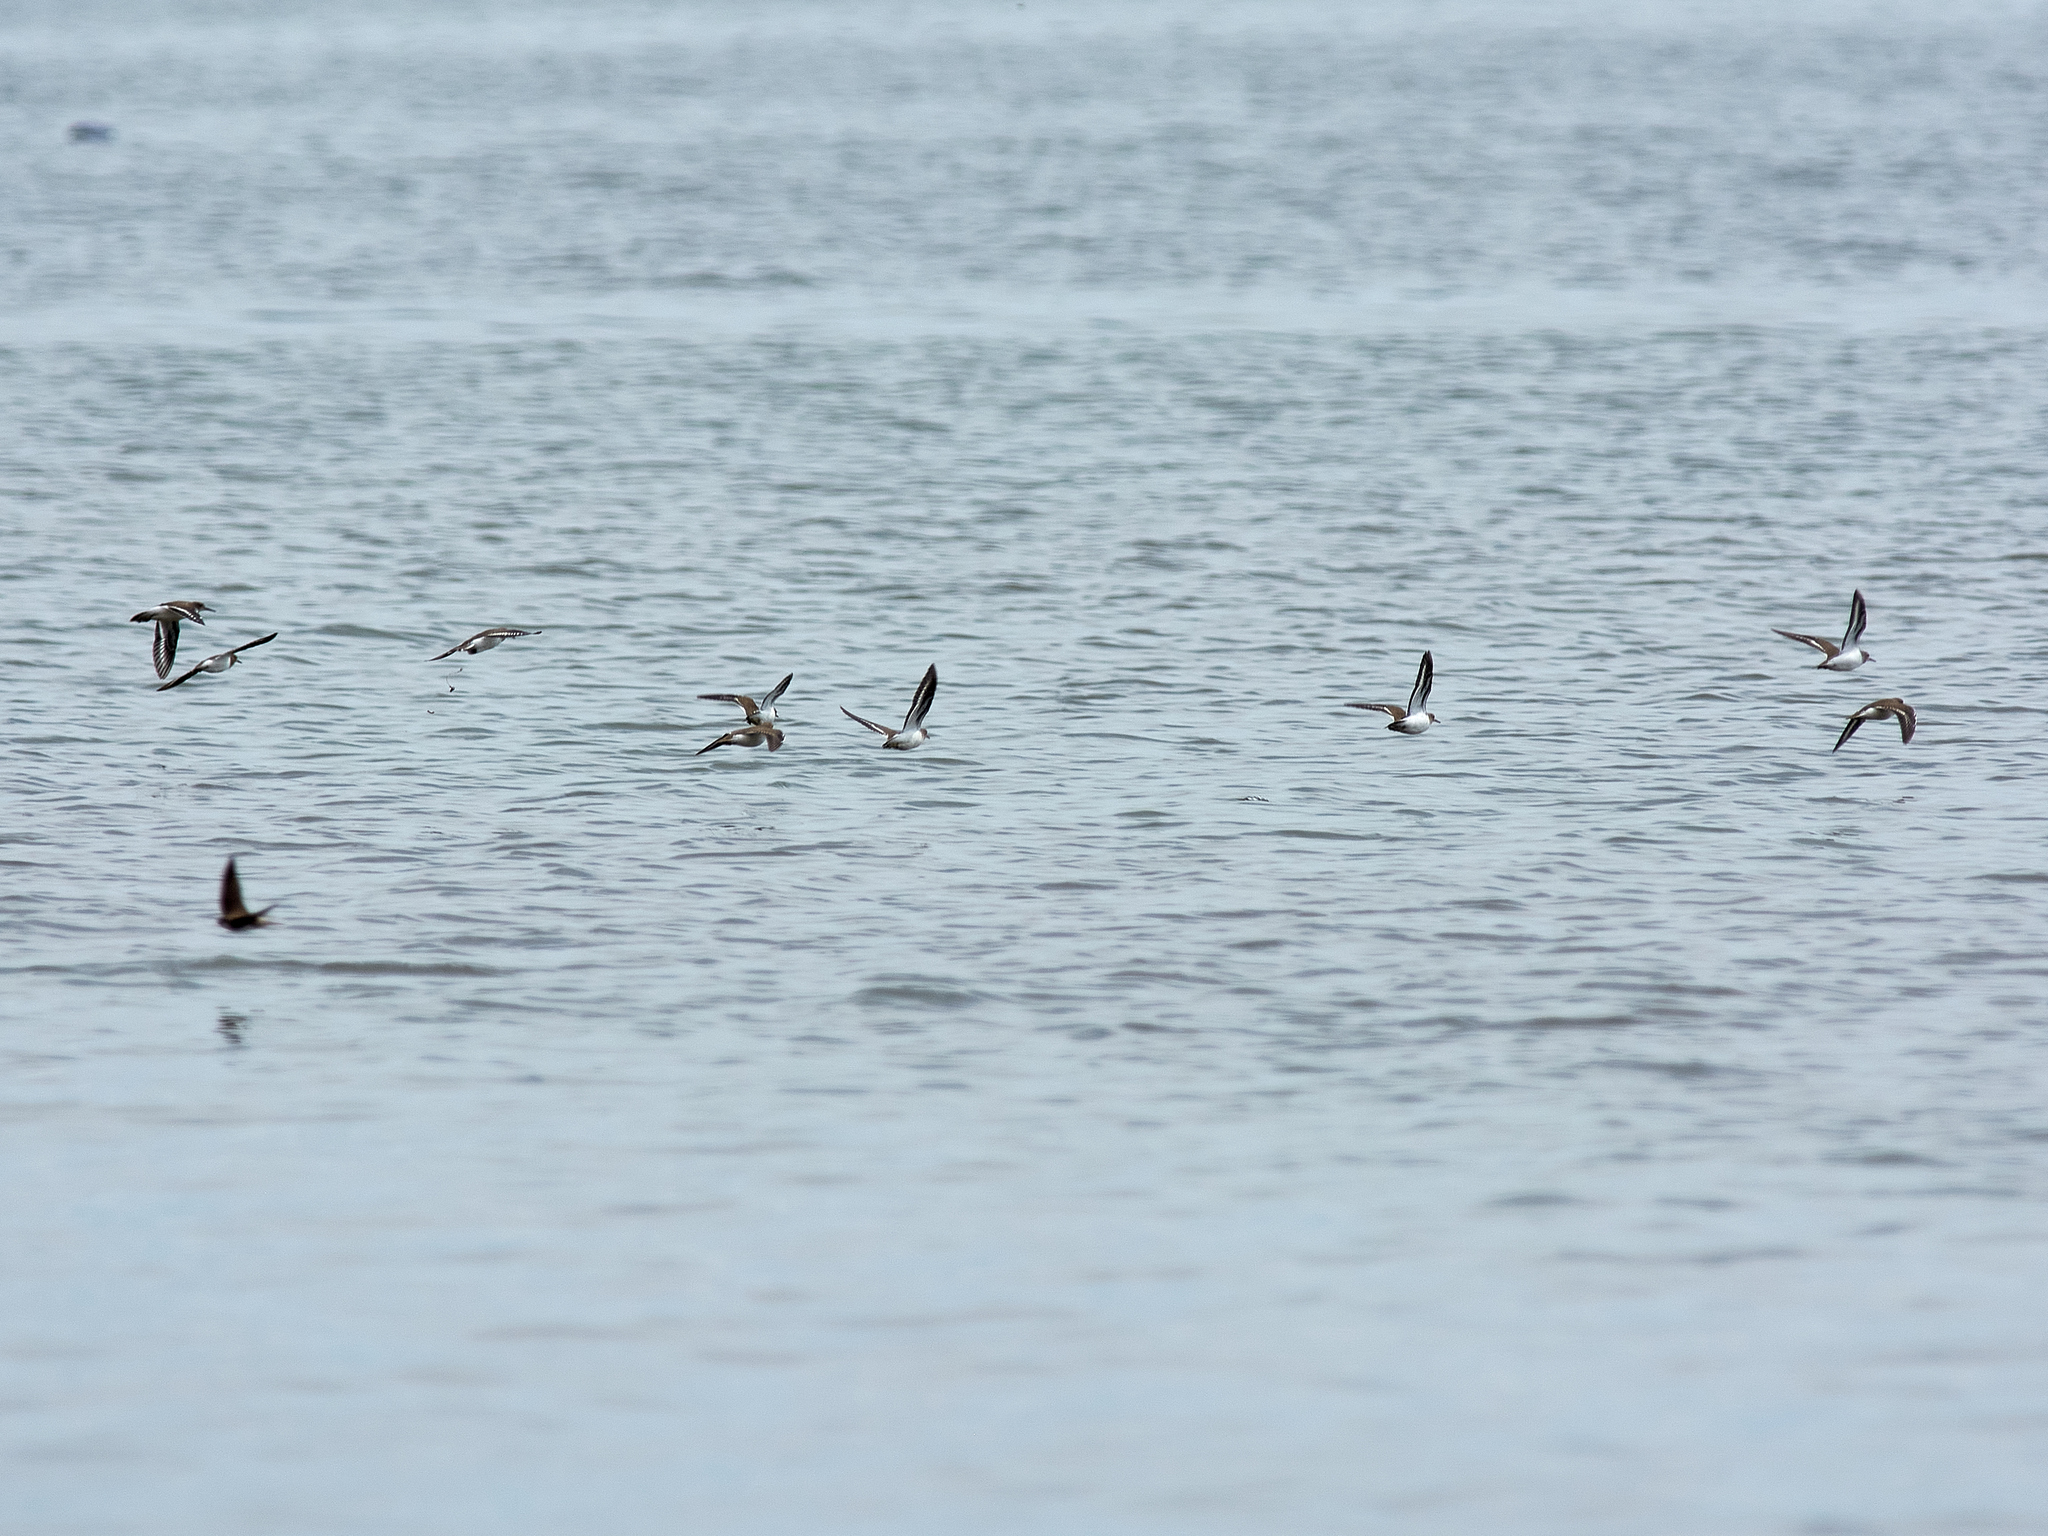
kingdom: Animalia
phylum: Chordata
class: Aves
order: Charadriiformes
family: Scolopacidae
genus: Actitis
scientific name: Actitis hypoleucos
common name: Common sandpiper
